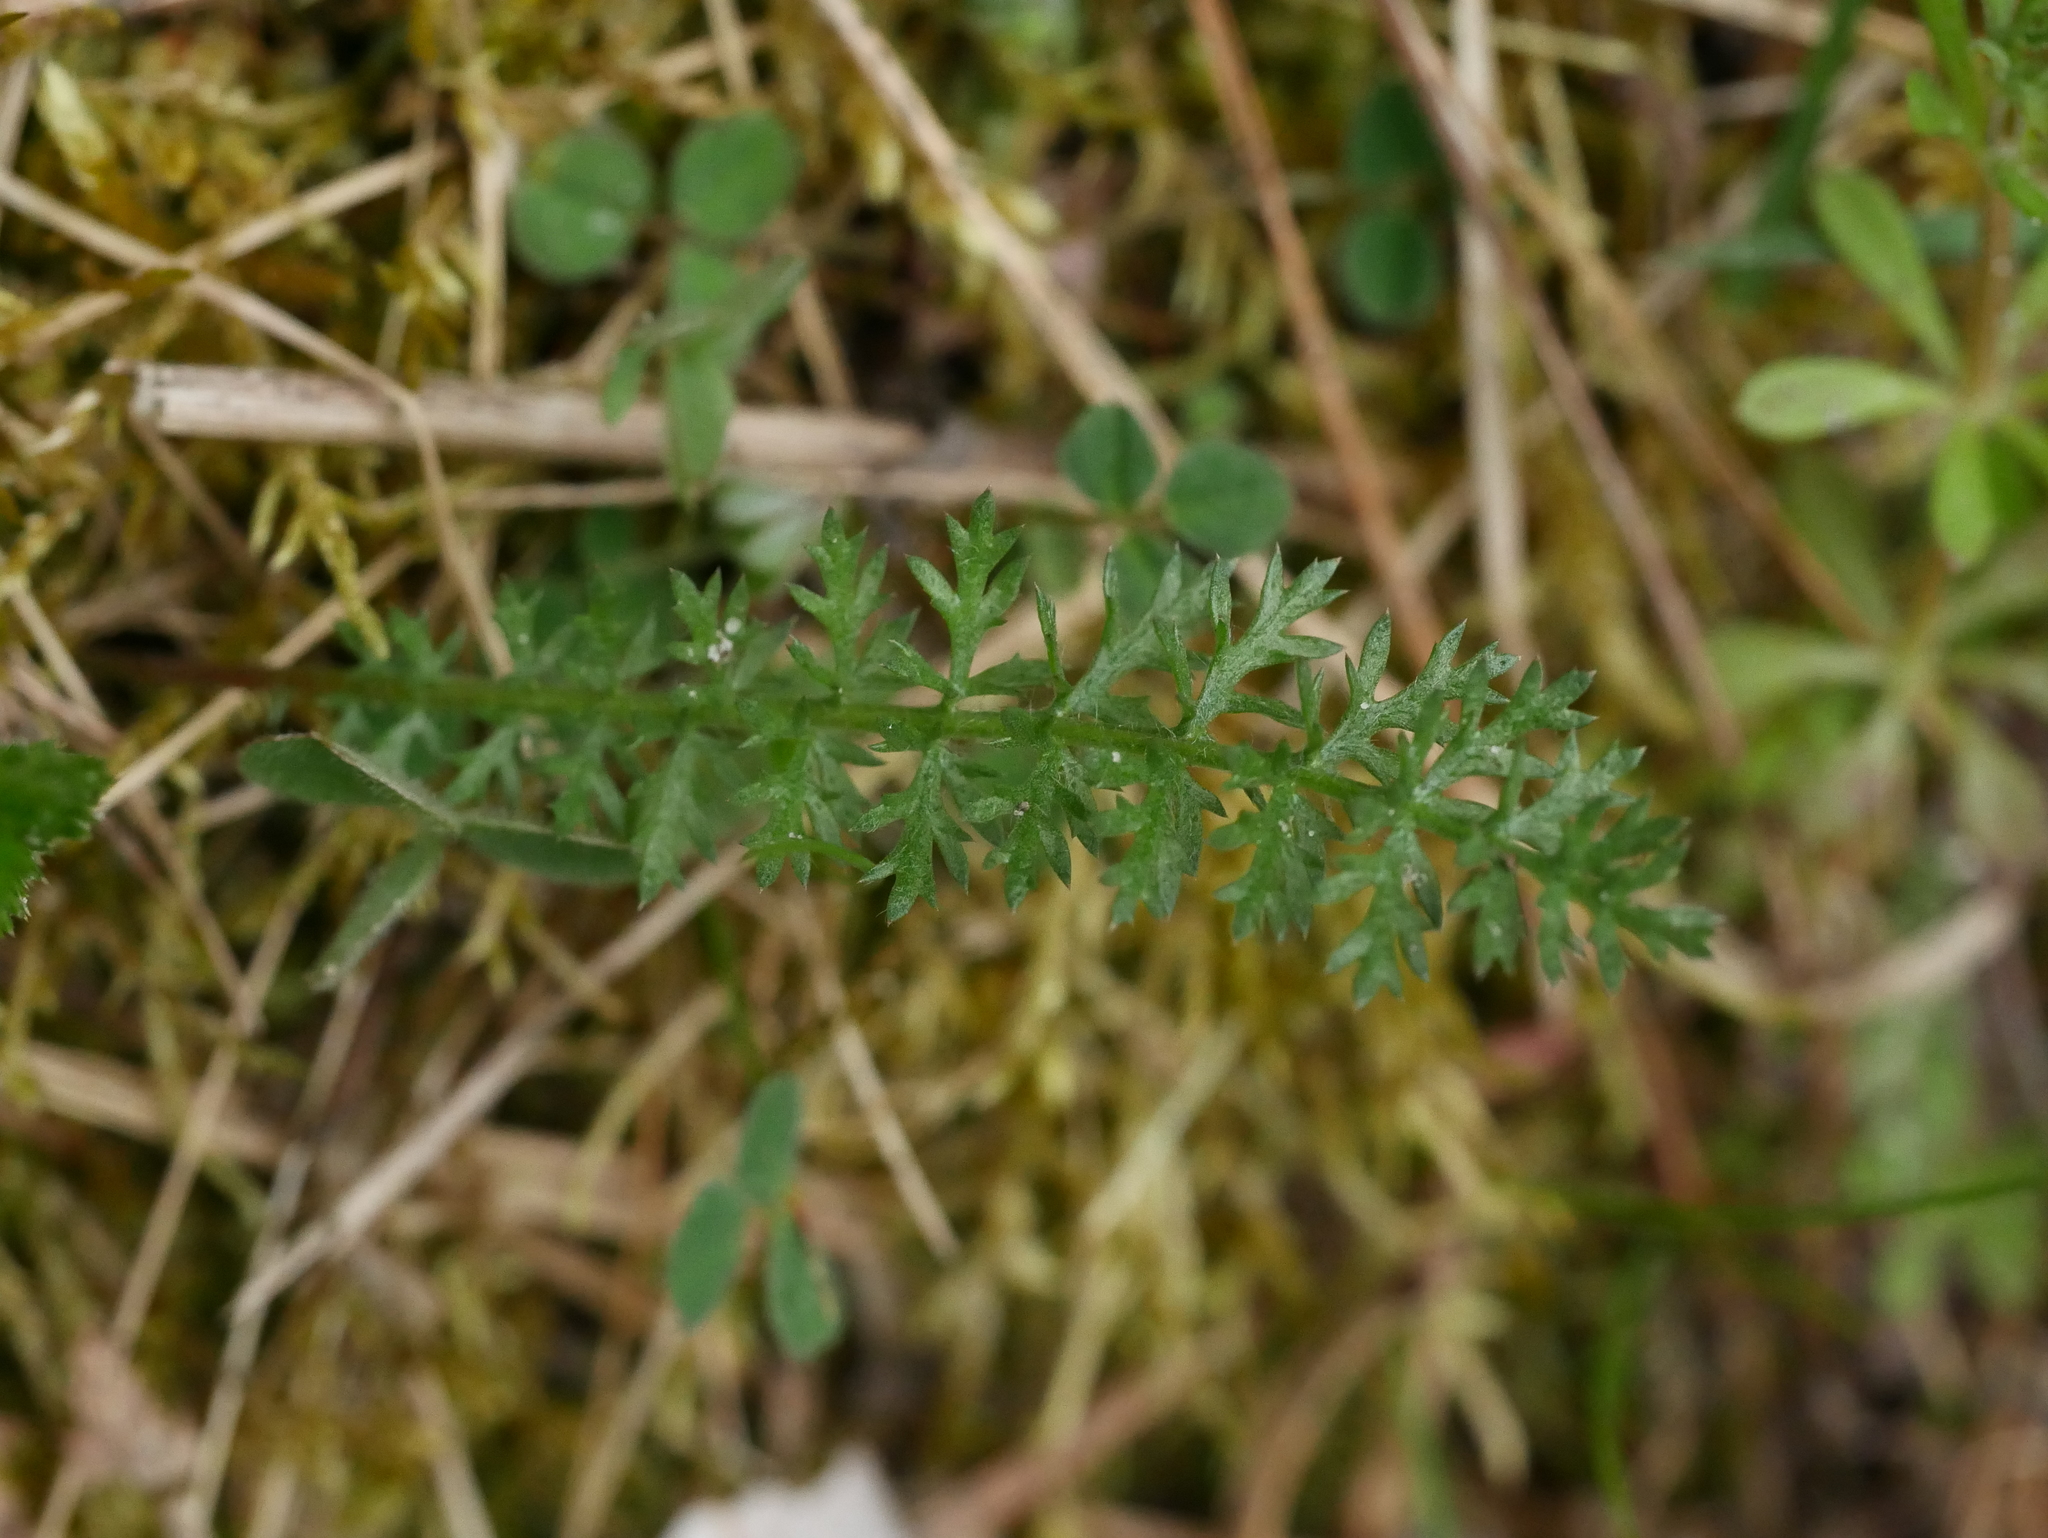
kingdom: Plantae
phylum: Tracheophyta
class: Magnoliopsida
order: Asterales
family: Asteraceae
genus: Achillea
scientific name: Achillea millefolium
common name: Yarrow
